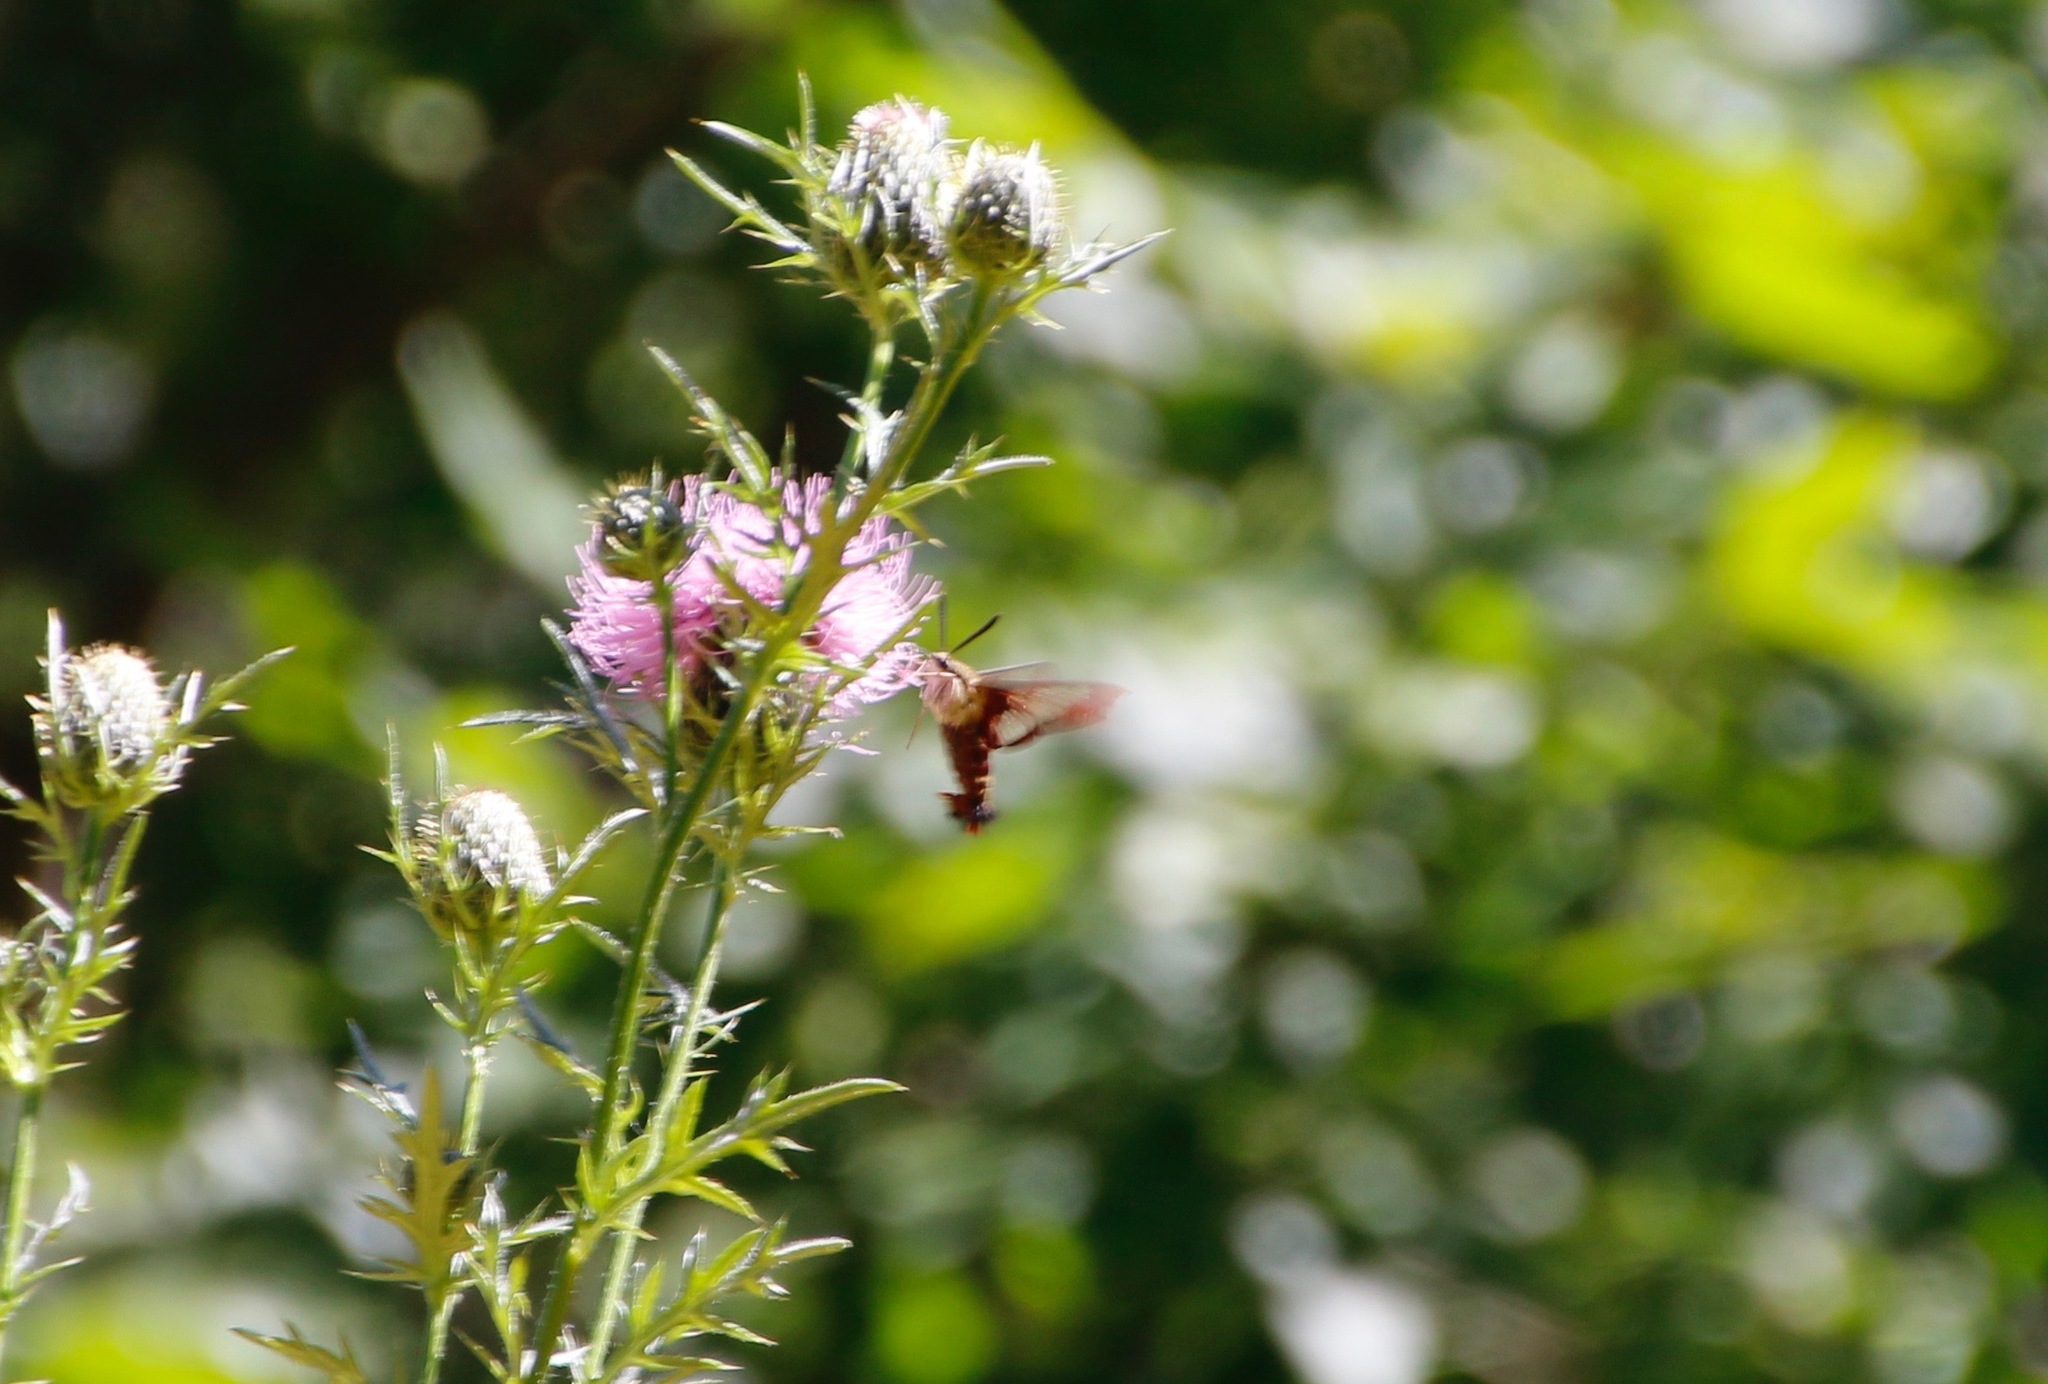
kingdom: Animalia
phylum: Arthropoda
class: Insecta
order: Lepidoptera
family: Sphingidae
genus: Hemaris
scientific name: Hemaris thysbe
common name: Common clear-wing
